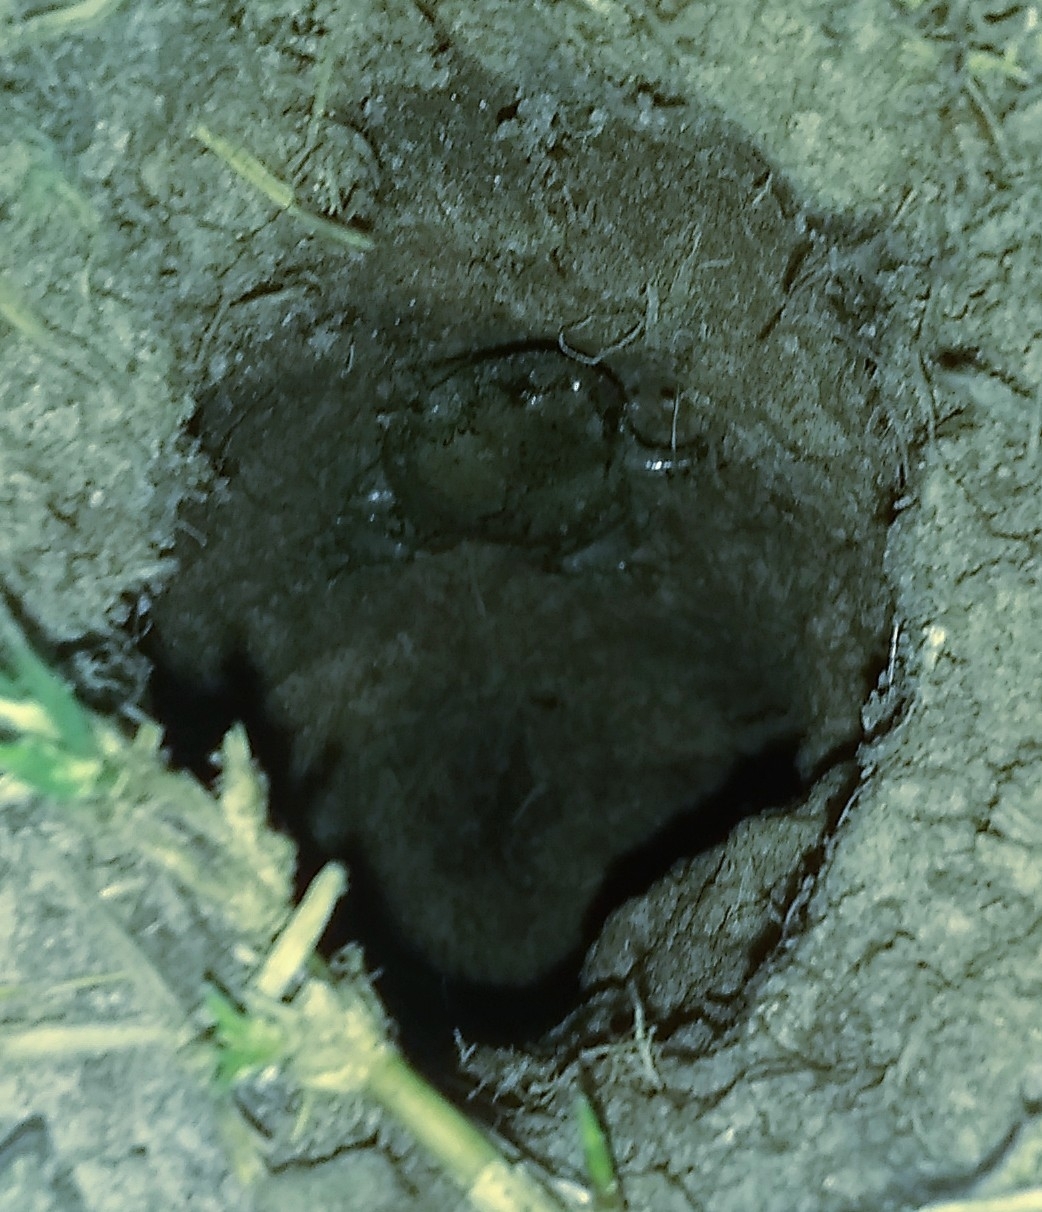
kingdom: Animalia
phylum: Chordata
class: Amphibia
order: Anura
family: Microhylidae
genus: Gastrophryne
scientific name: Gastrophryne olivacea
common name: Great plains narrow-mouthed toad
